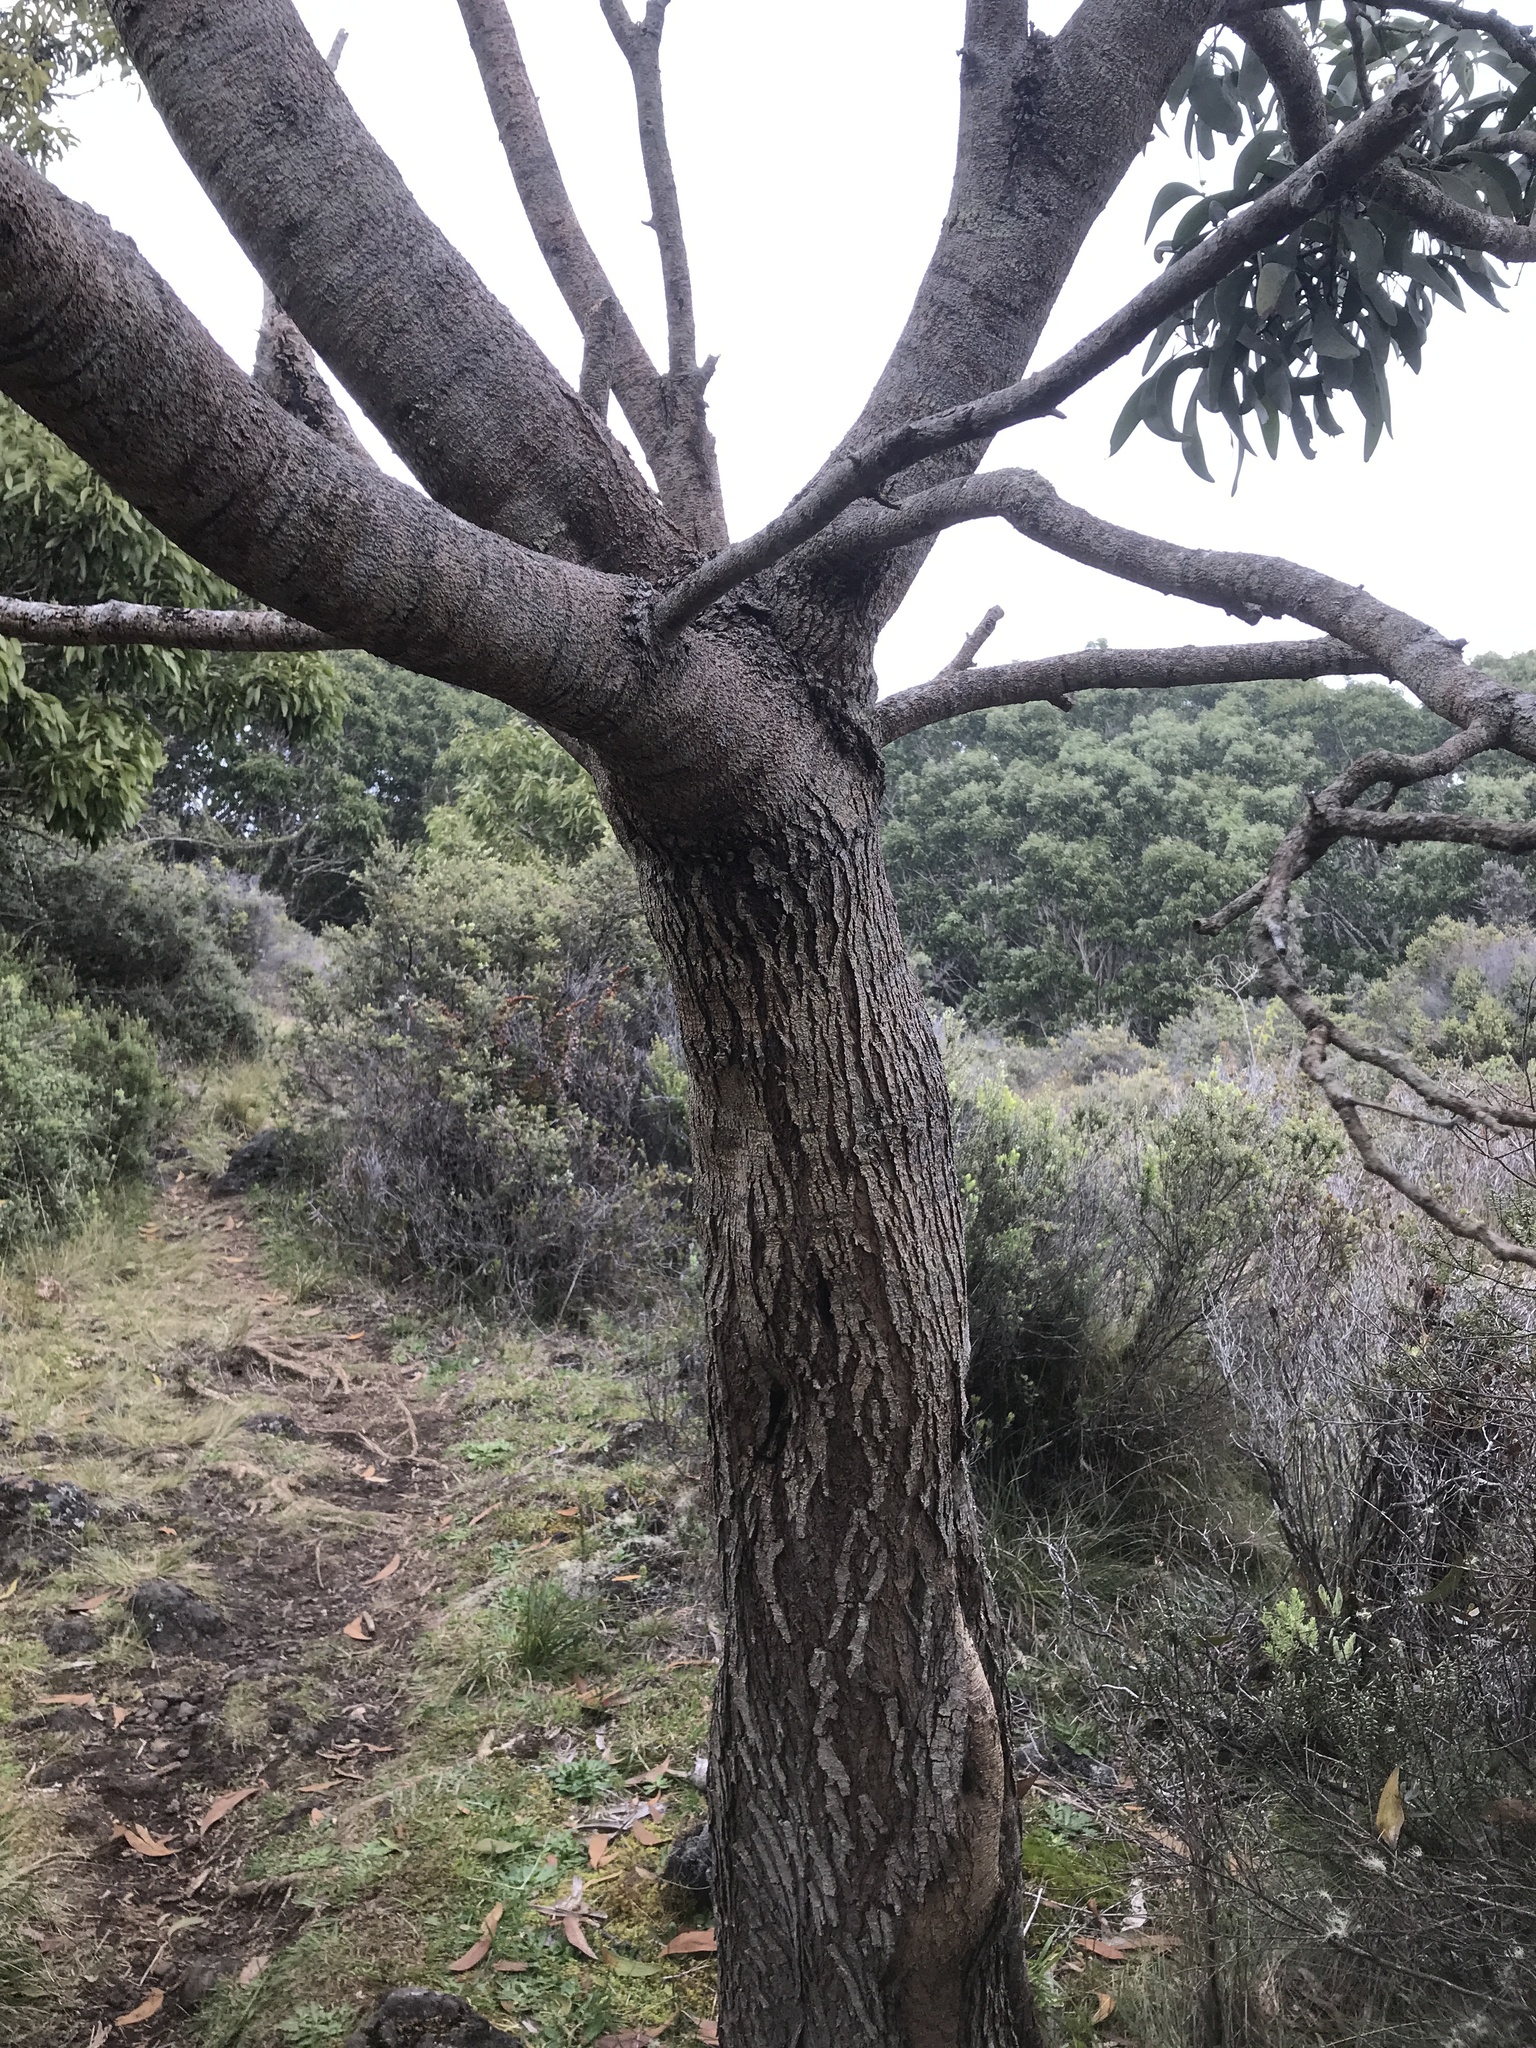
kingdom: Plantae
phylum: Tracheophyta
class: Magnoliopsida
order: Fabales
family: Fabaceae
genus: Acacia
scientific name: Acacia koa
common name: Gray koa
